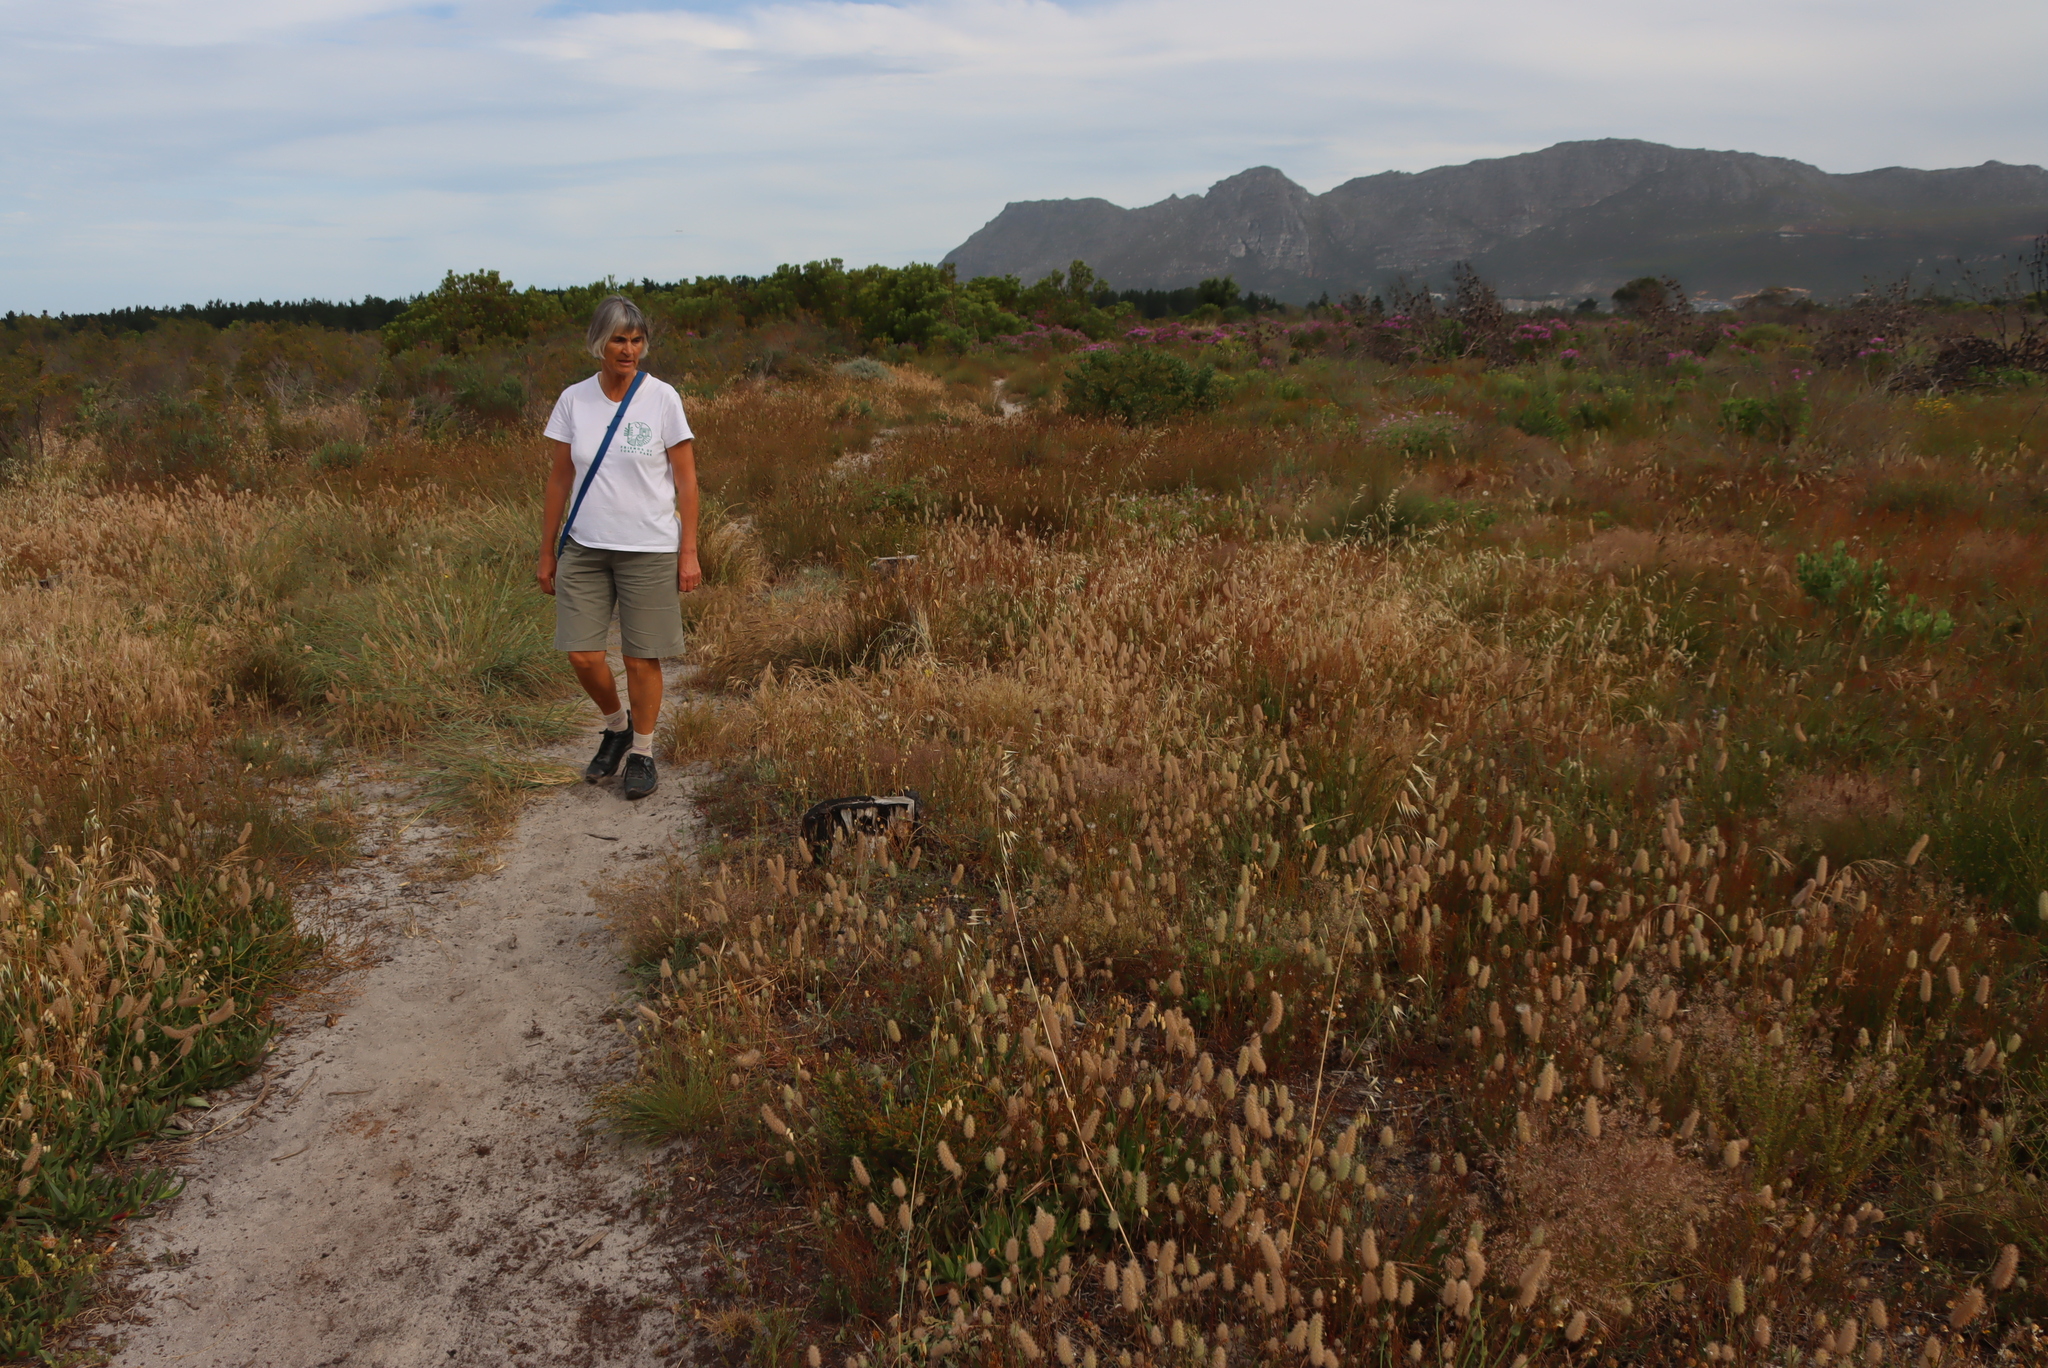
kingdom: Plantae
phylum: Tracheophyta
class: Magnoliopsida
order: Fabales
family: Fabaceae
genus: Trifolium
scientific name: Trifolium angustifolium
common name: Narrow clover
